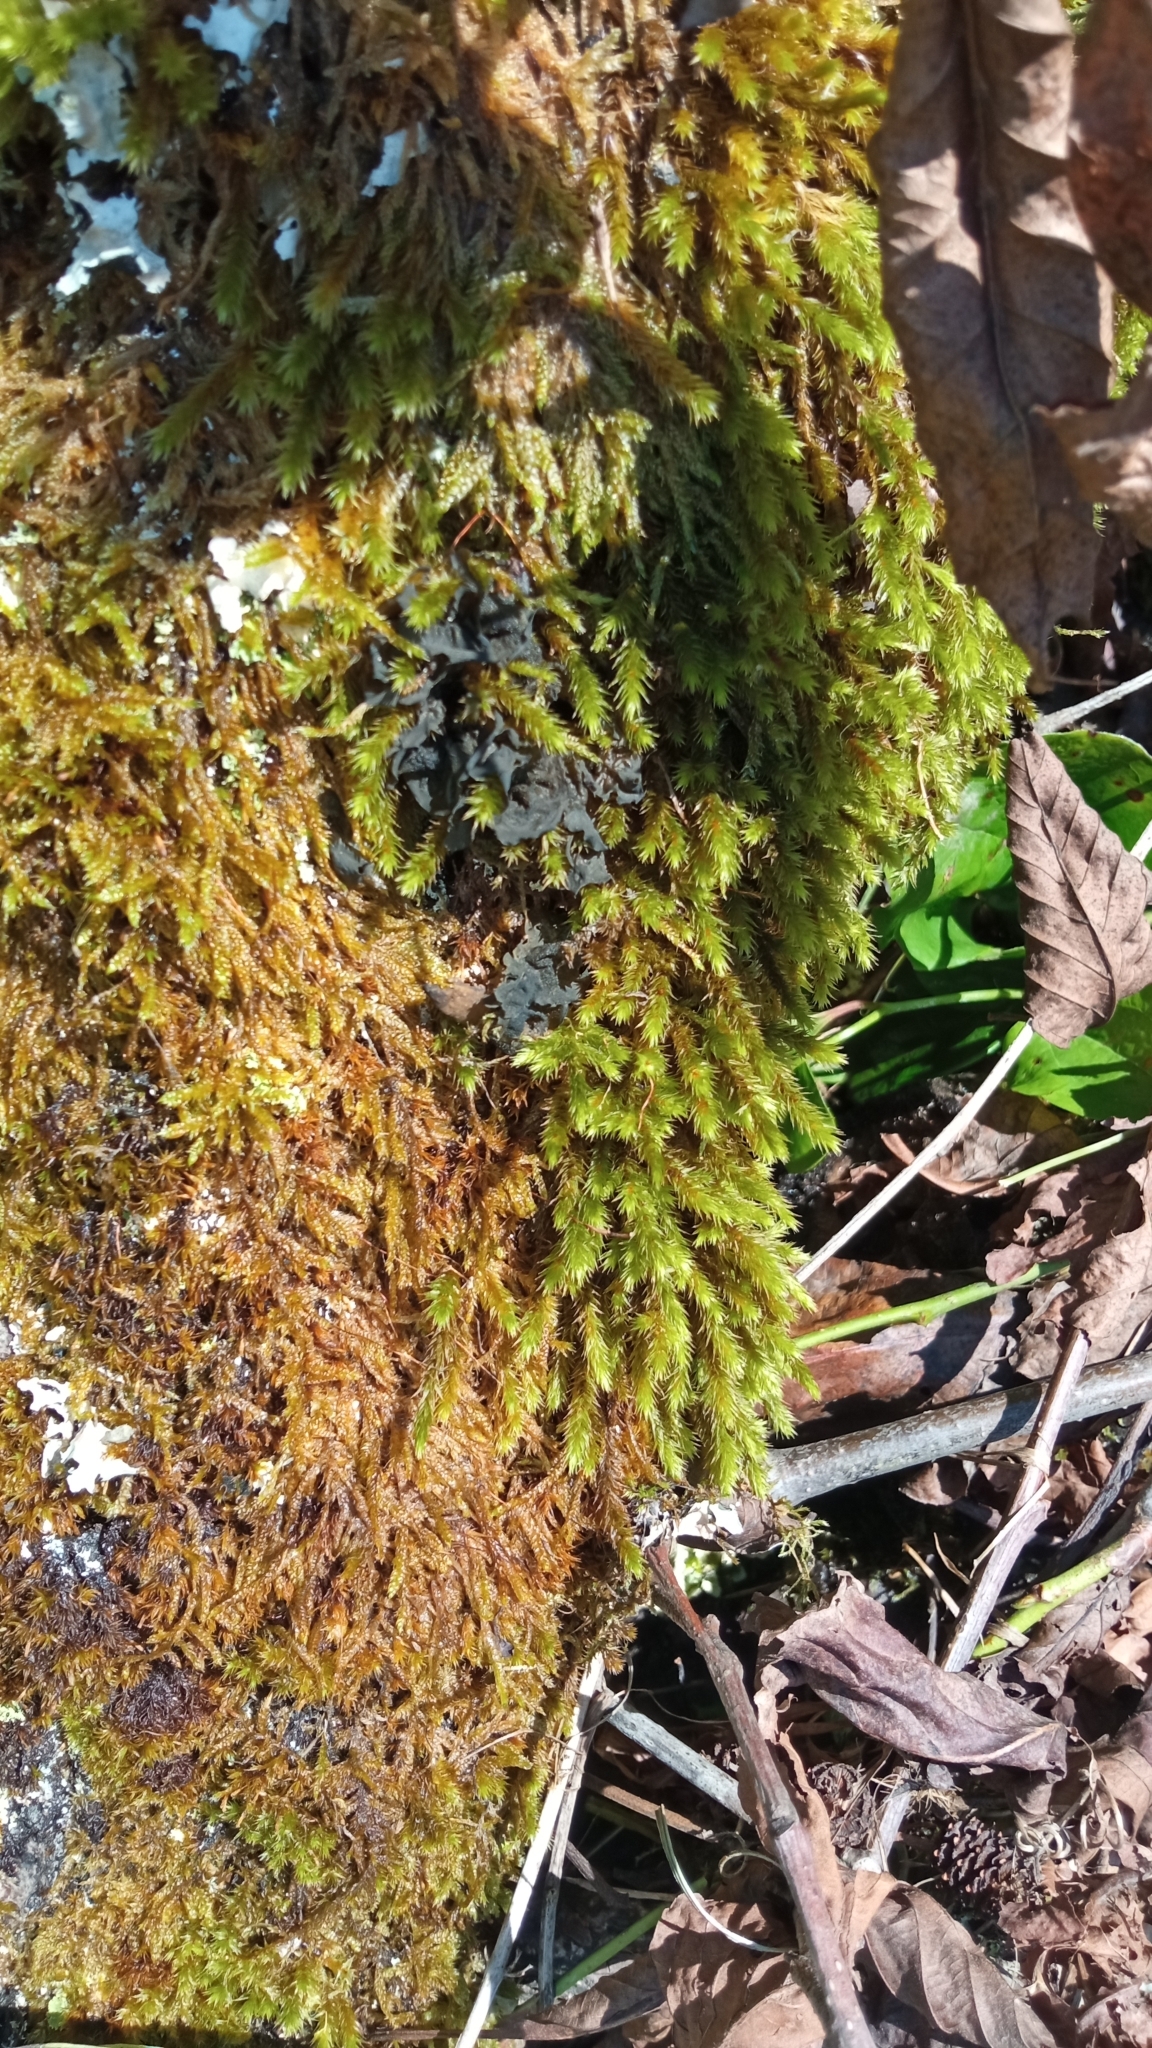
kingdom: Plantae
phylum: Bryophyta
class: Bryopsida
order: Hypnales
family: Leucodontaceae
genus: Leucodon
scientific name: Leucodon sciuroides
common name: Squirrel-tail moss
